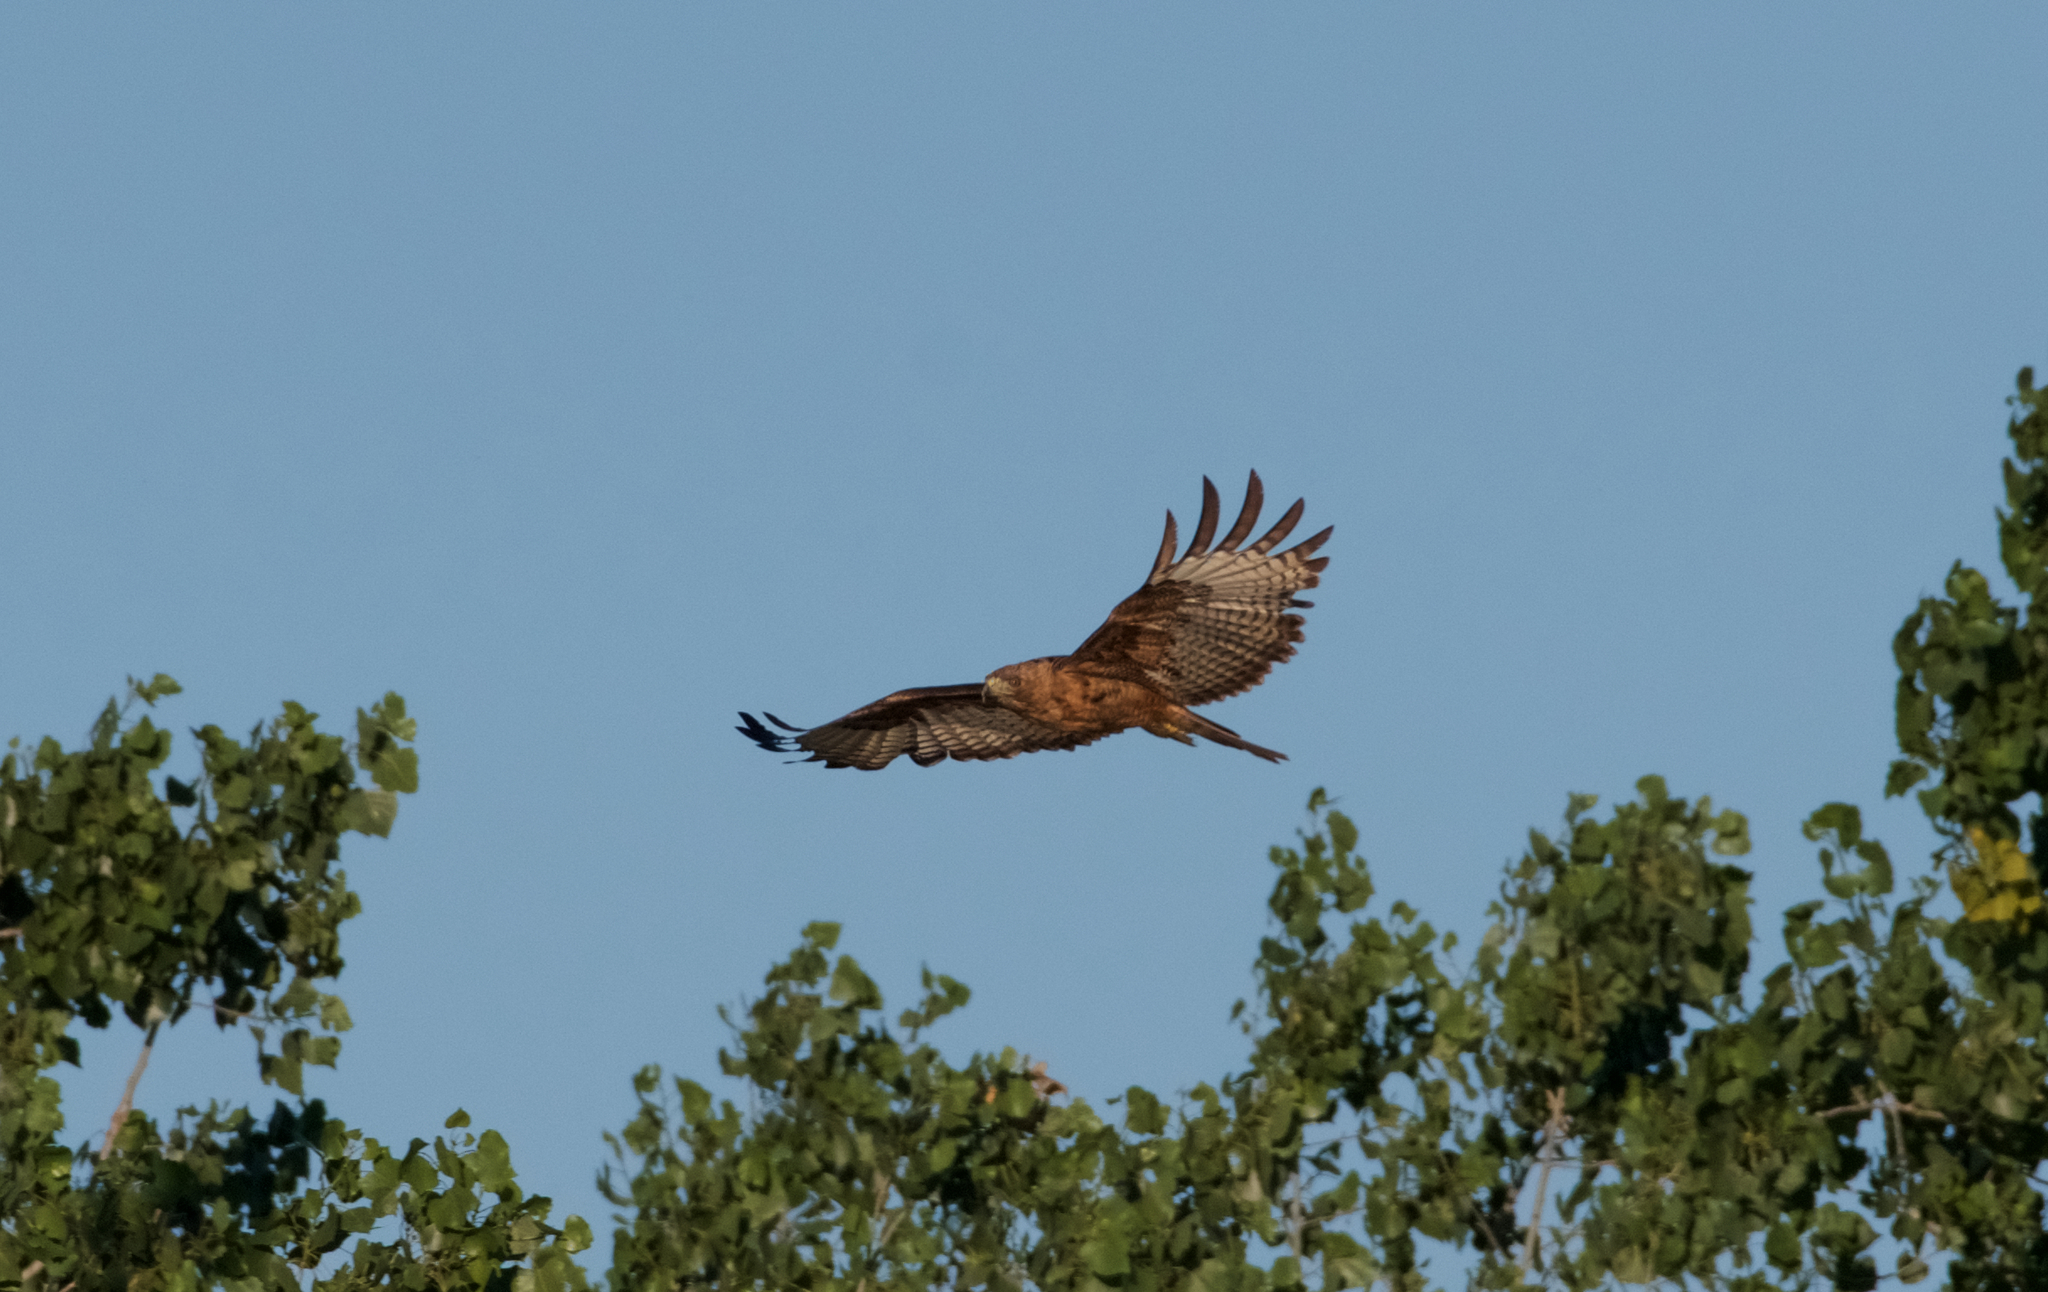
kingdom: Animalia
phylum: Chordata
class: Aves
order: Accipitriformes
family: Accipitridae
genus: Buteo
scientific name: Buteo jamaicensis
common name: Red-tailed hawk
